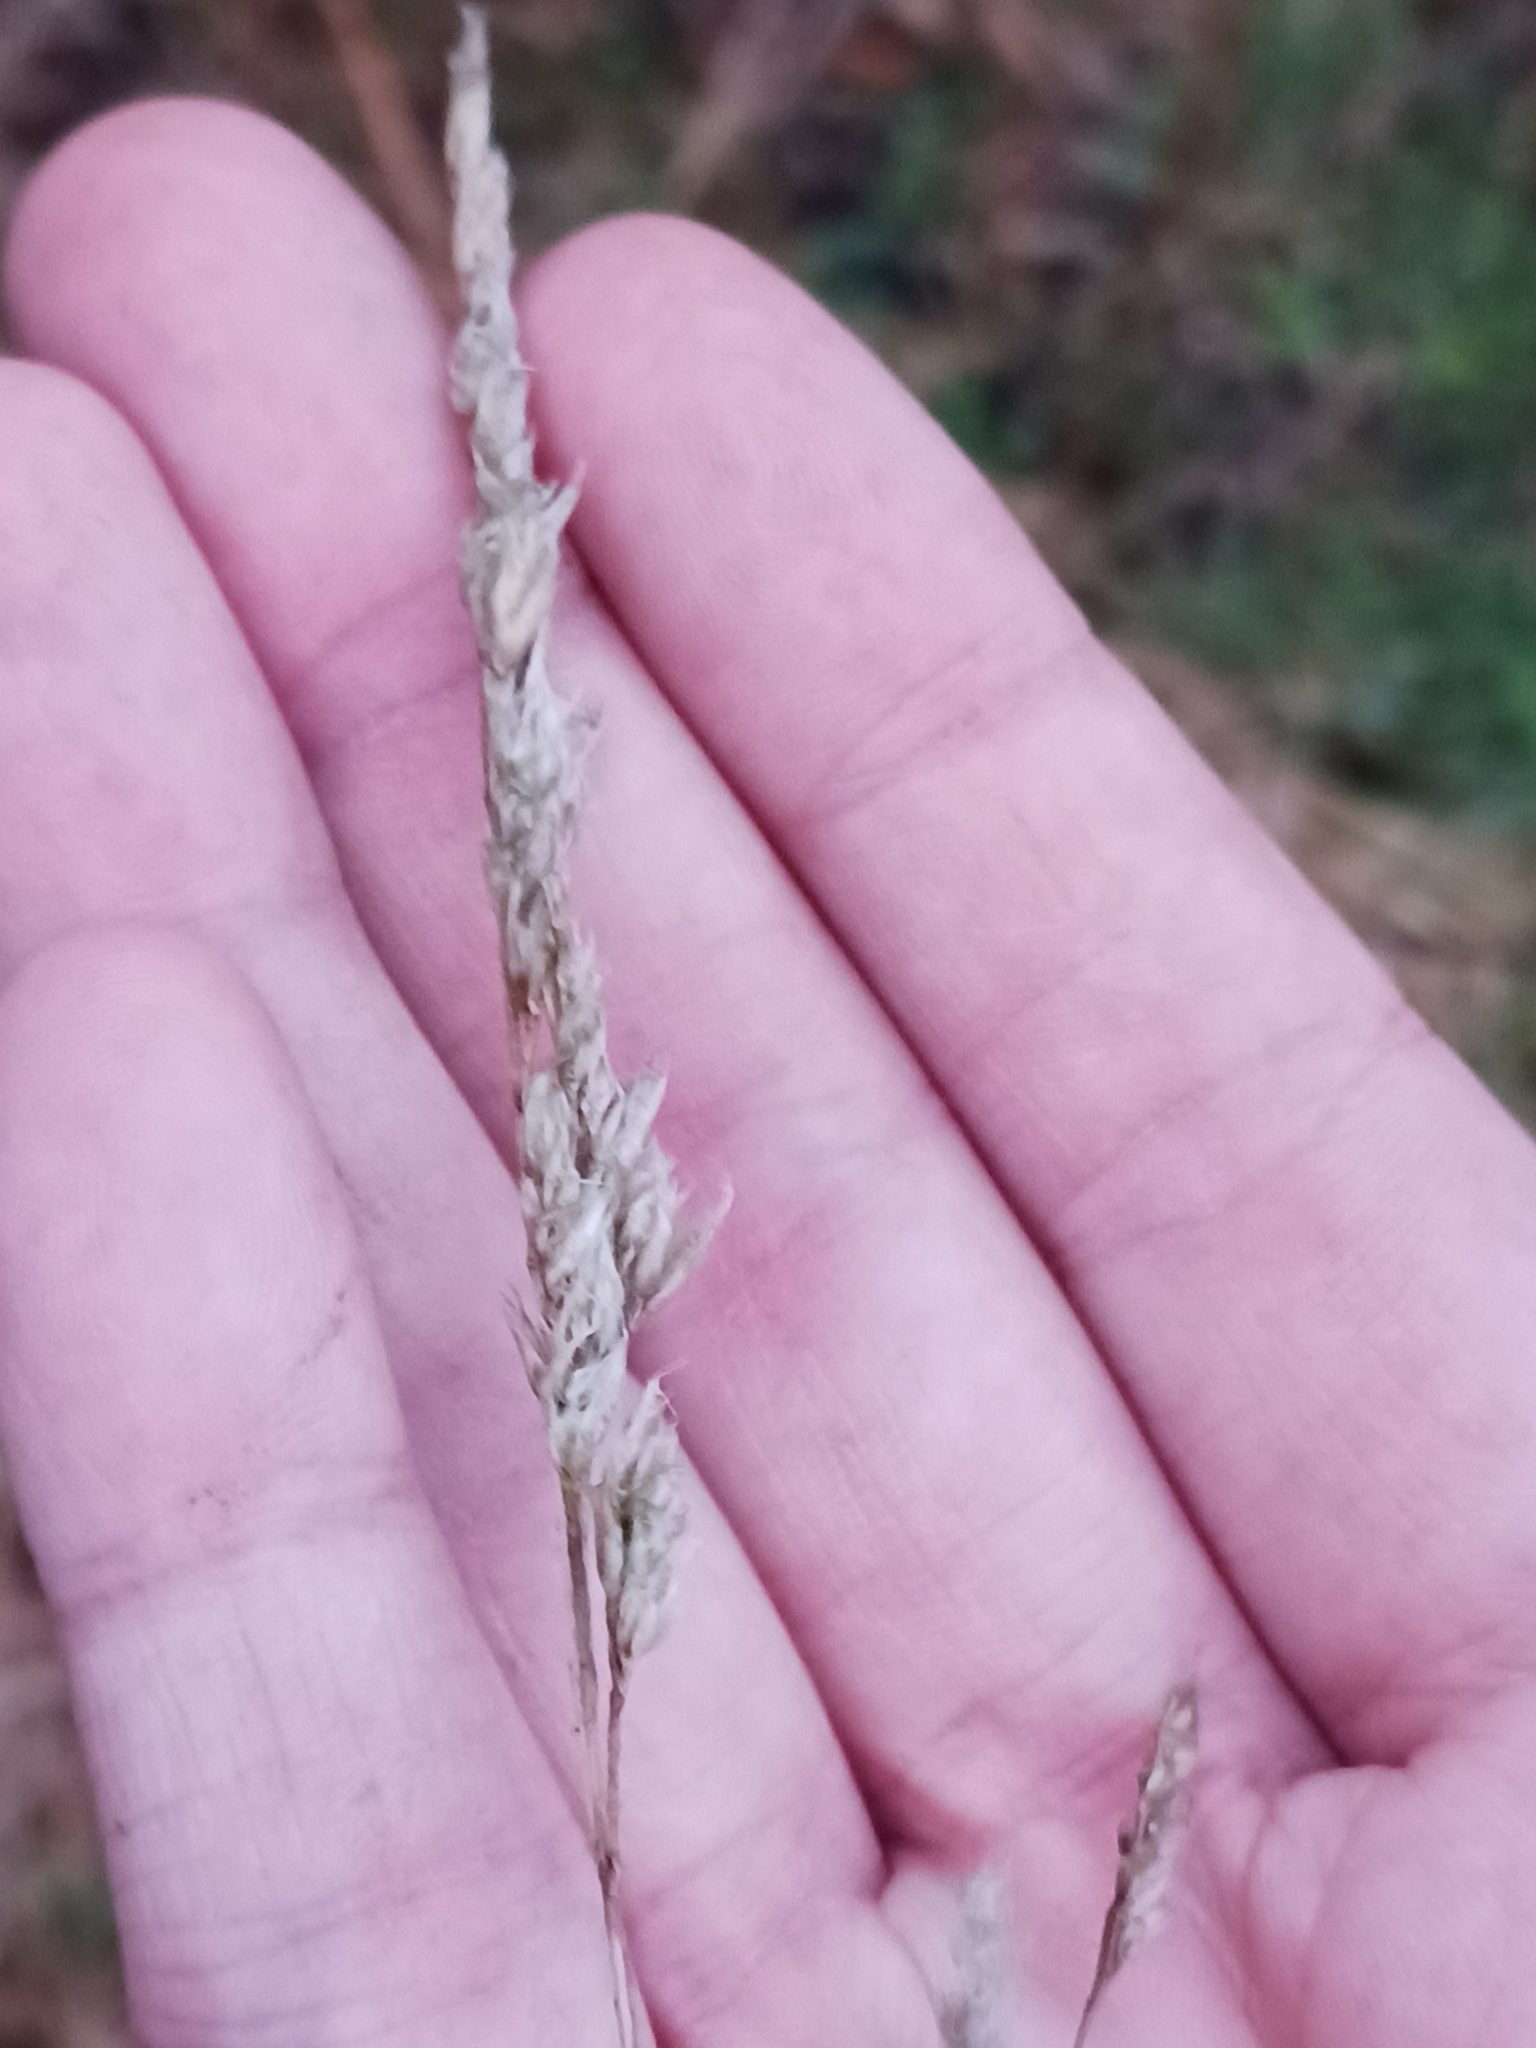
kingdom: Plantae
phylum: Tracheophyta
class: Liliopsida
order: Poales
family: Poaceae
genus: Dactylis
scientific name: Dactylis glomerata
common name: Orchardgrass
